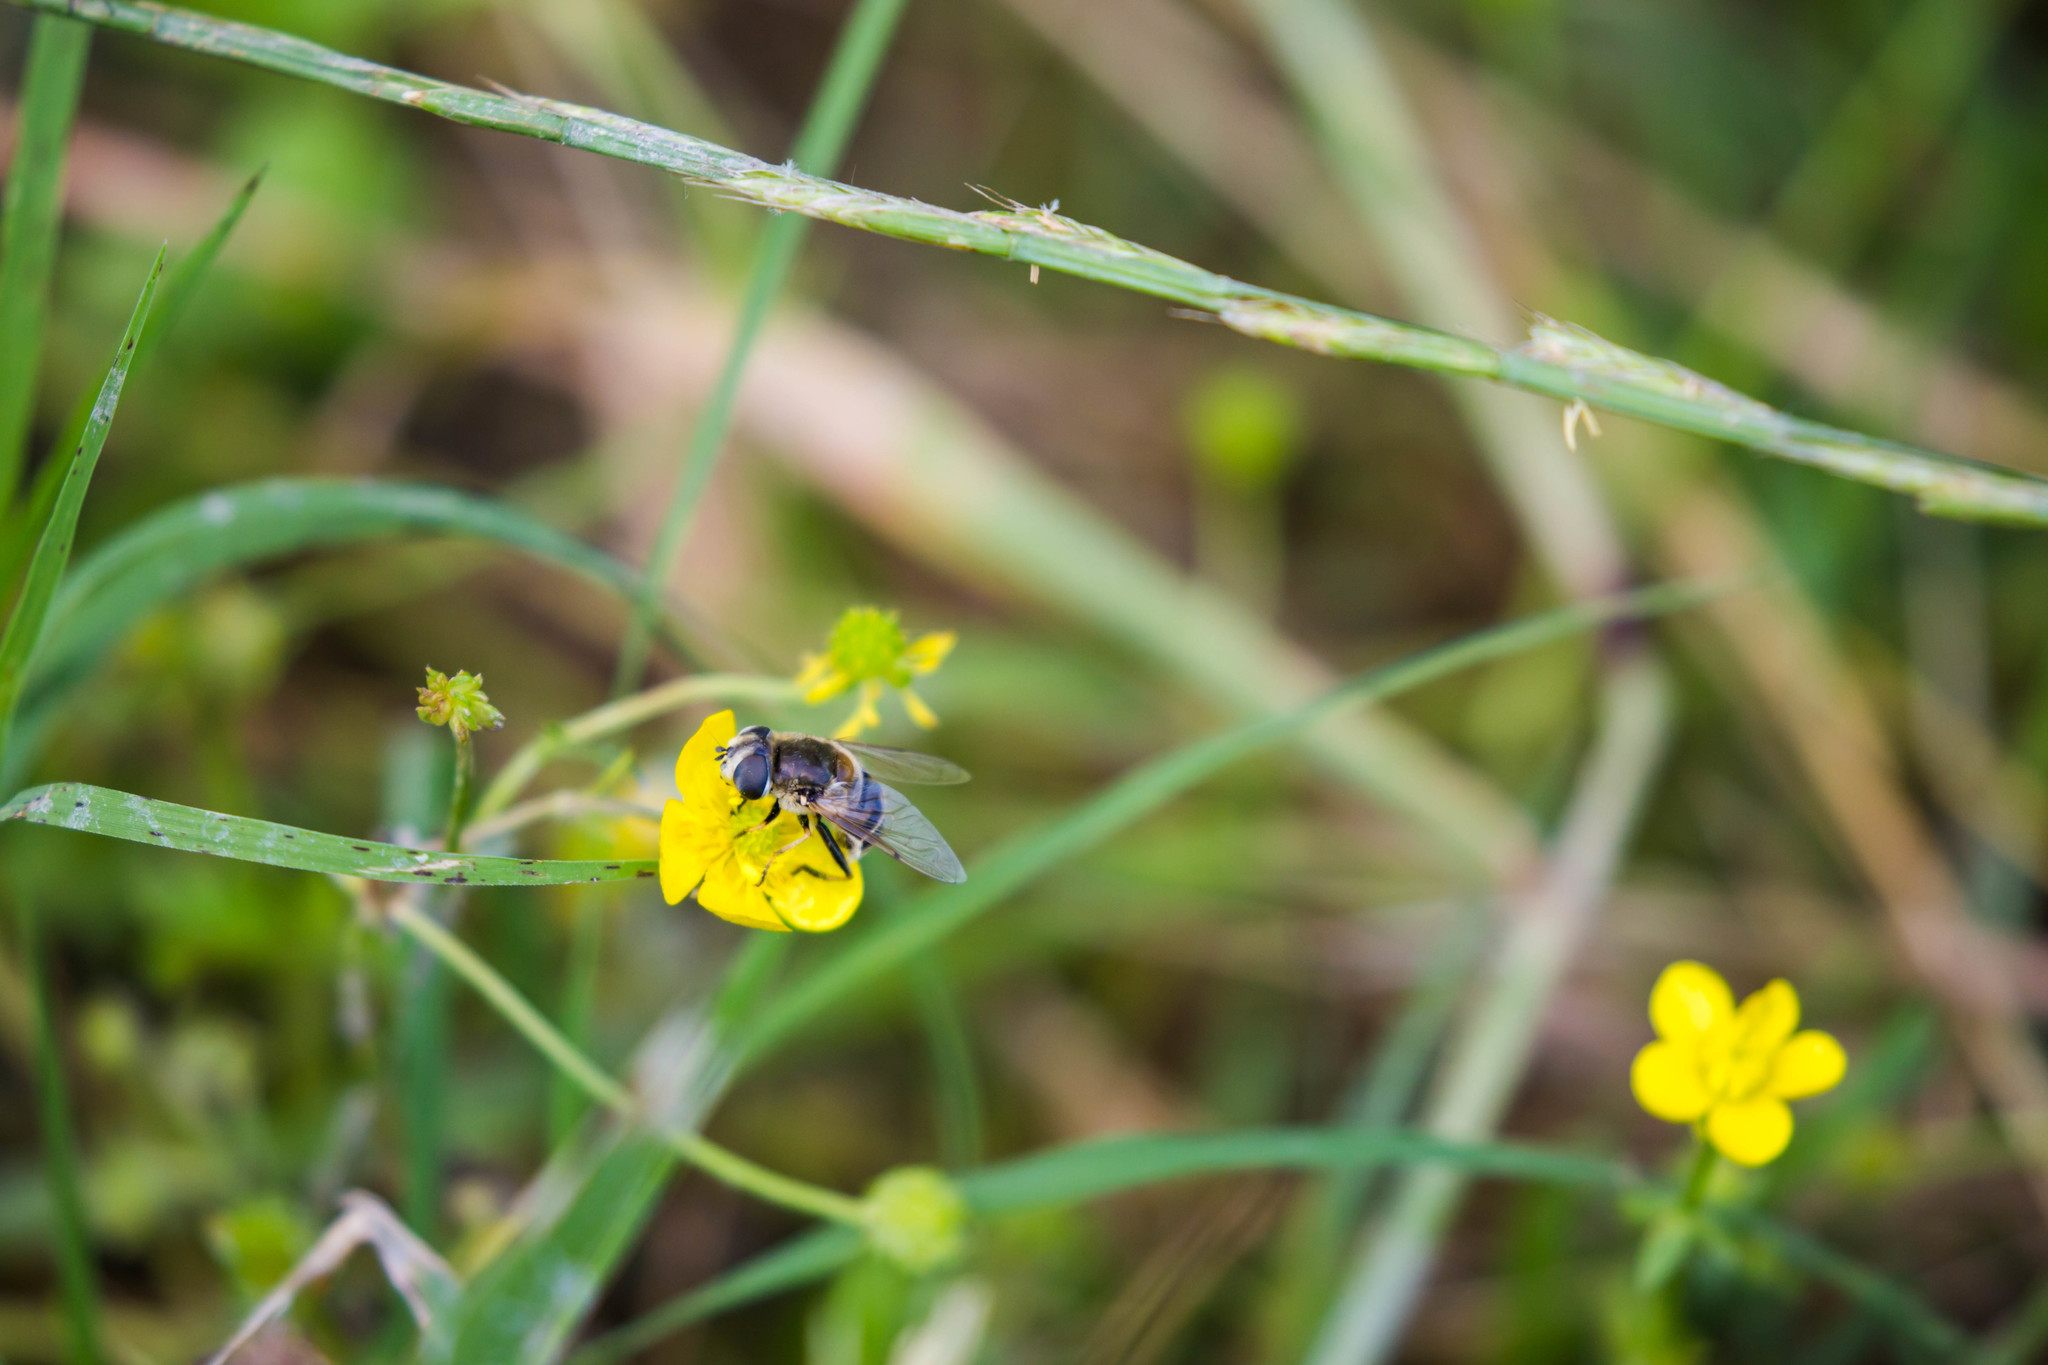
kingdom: Animalia
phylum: Arthropoda
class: Insecta
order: Diptera
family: Syrphidae
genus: Eristalis
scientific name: Eristalis stipator
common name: Yellow-shouldered drone fly
